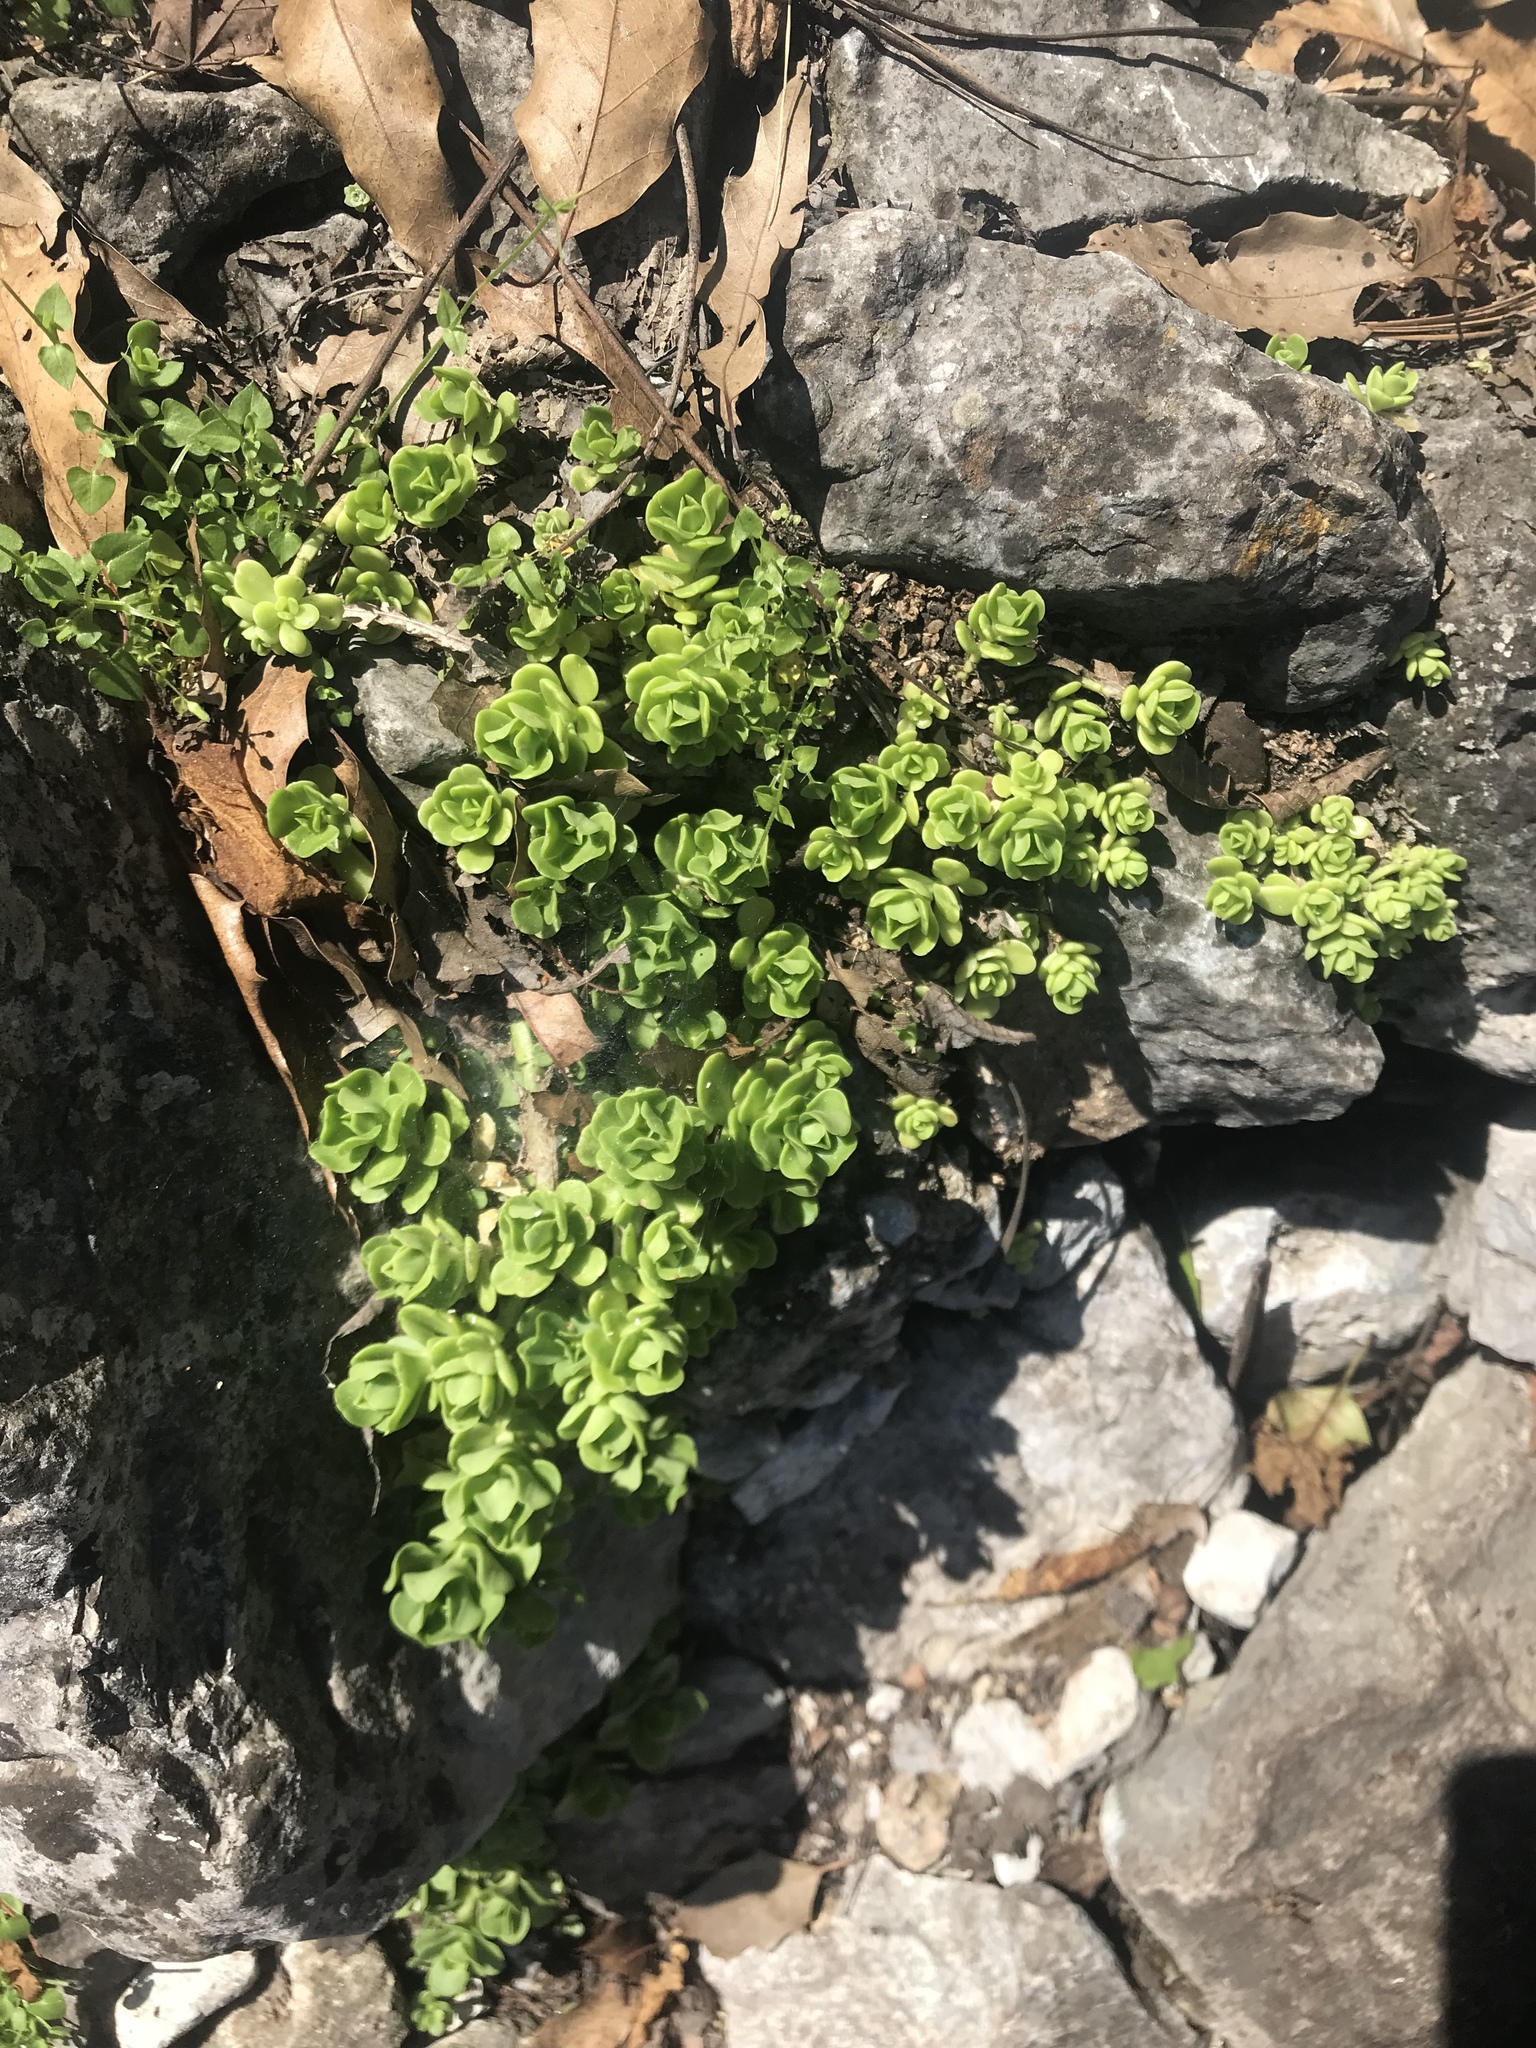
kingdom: Plantae
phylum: Tracheophyta
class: Magnoliopsida
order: Saxifragales
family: Crassulaceae
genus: Sedum
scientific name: Sedum rhodocarpum
